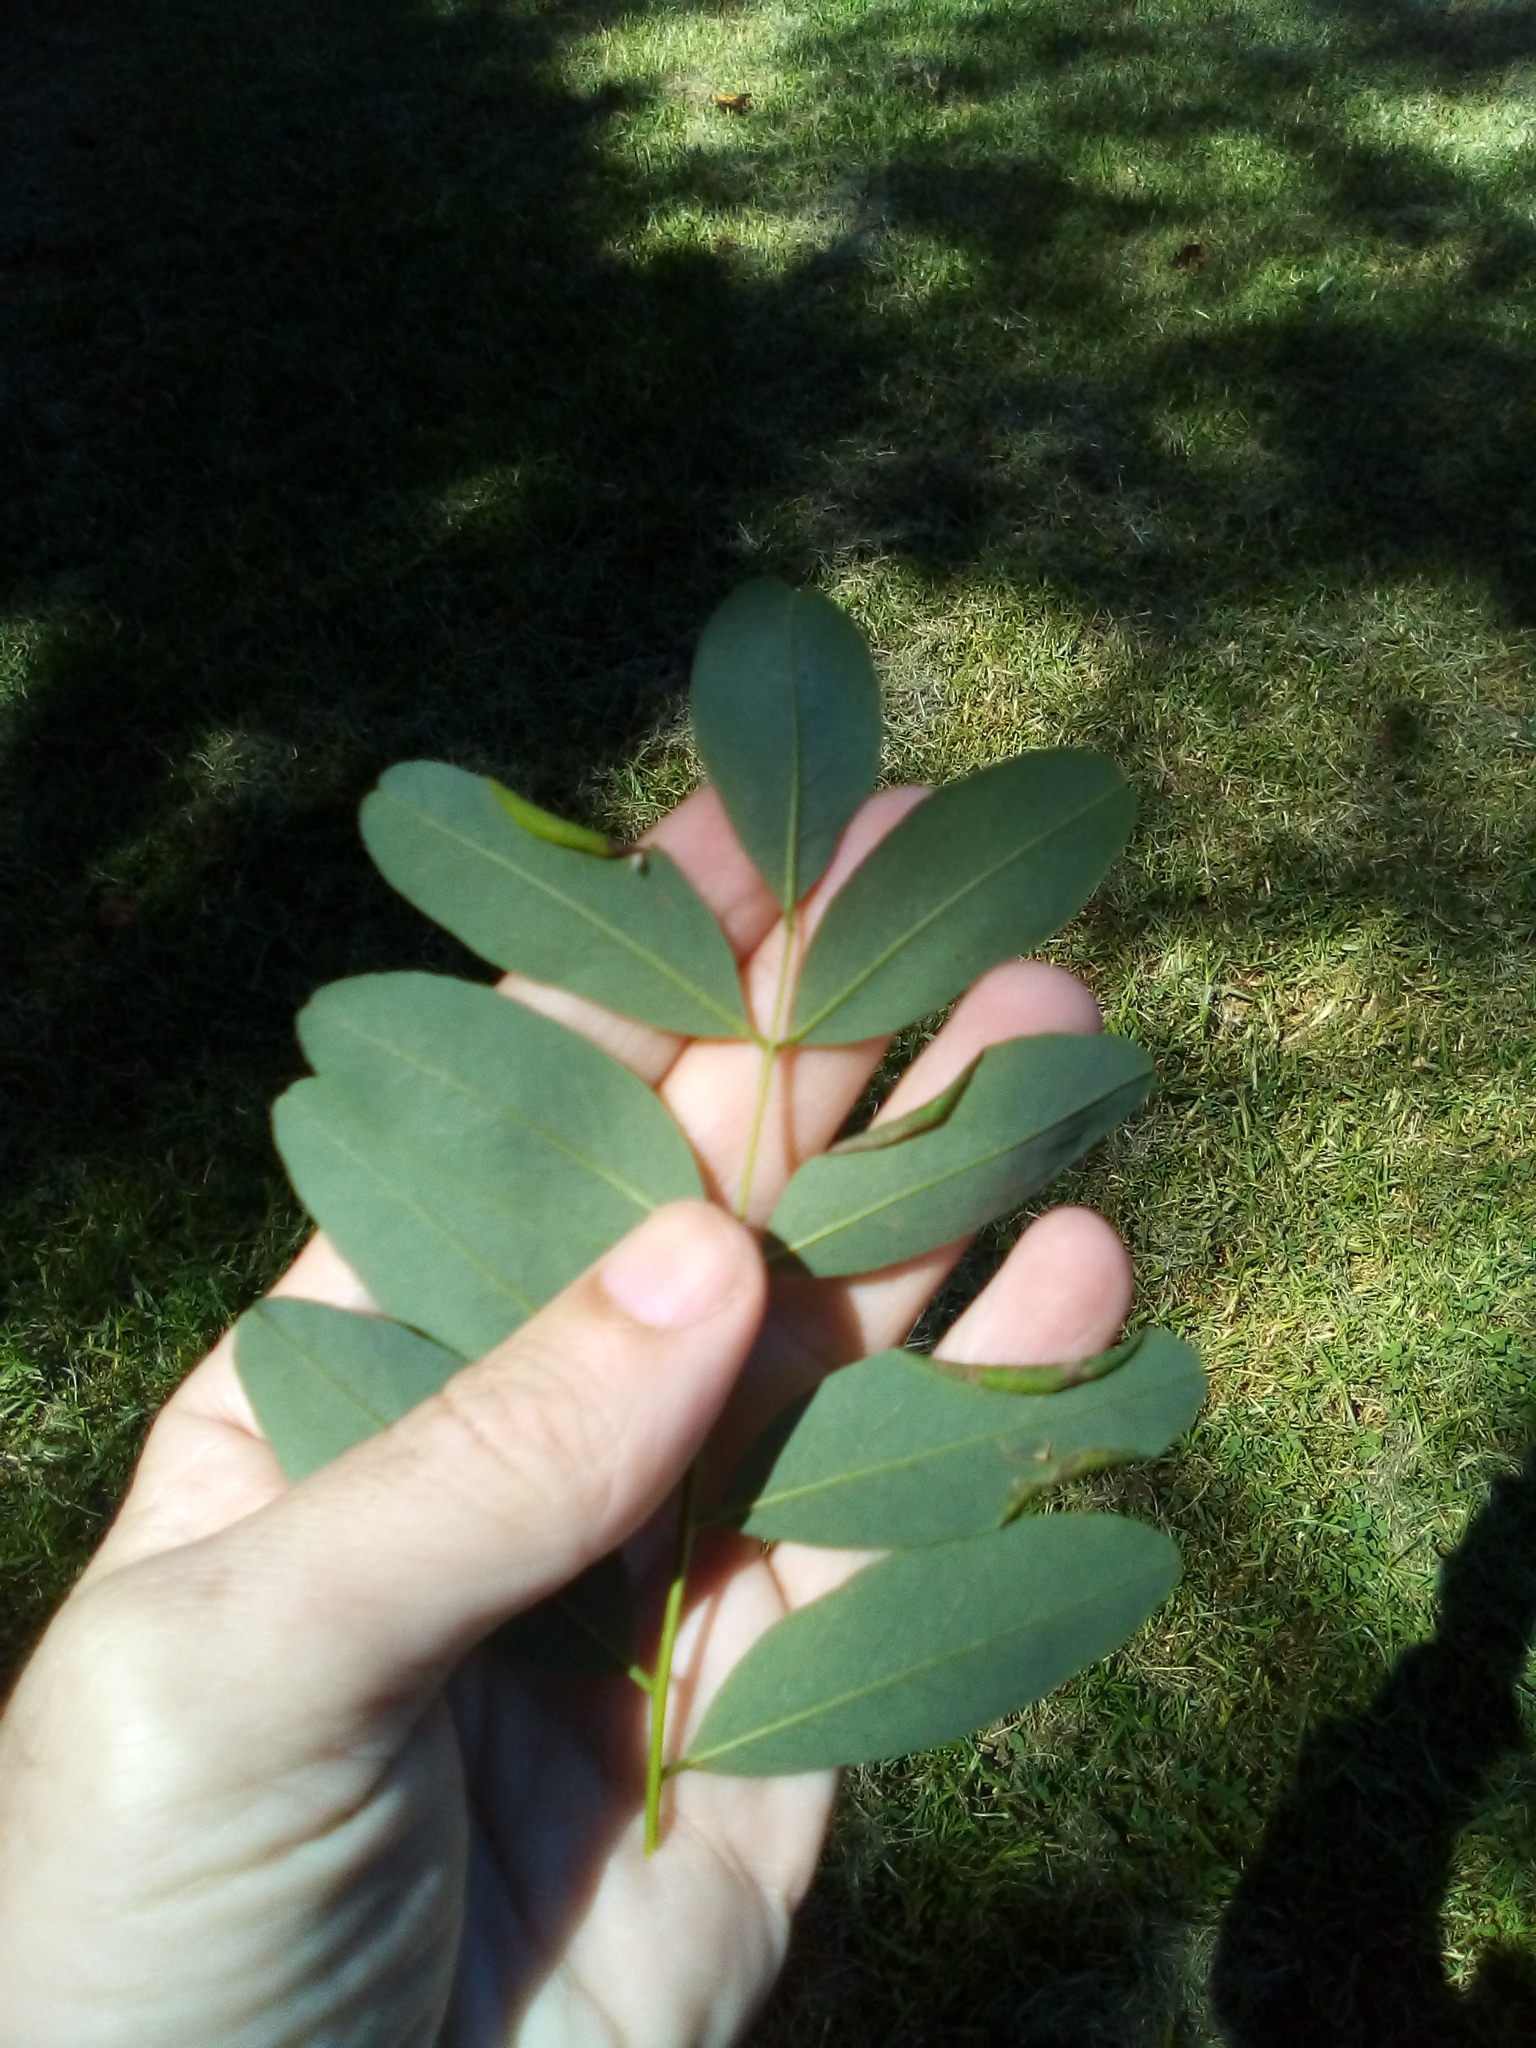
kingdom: Animalia
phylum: Arthropoda
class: Insecta
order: Hymenoptera
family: Platygastridae
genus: Platygaster
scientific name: Platygaster robiniae
